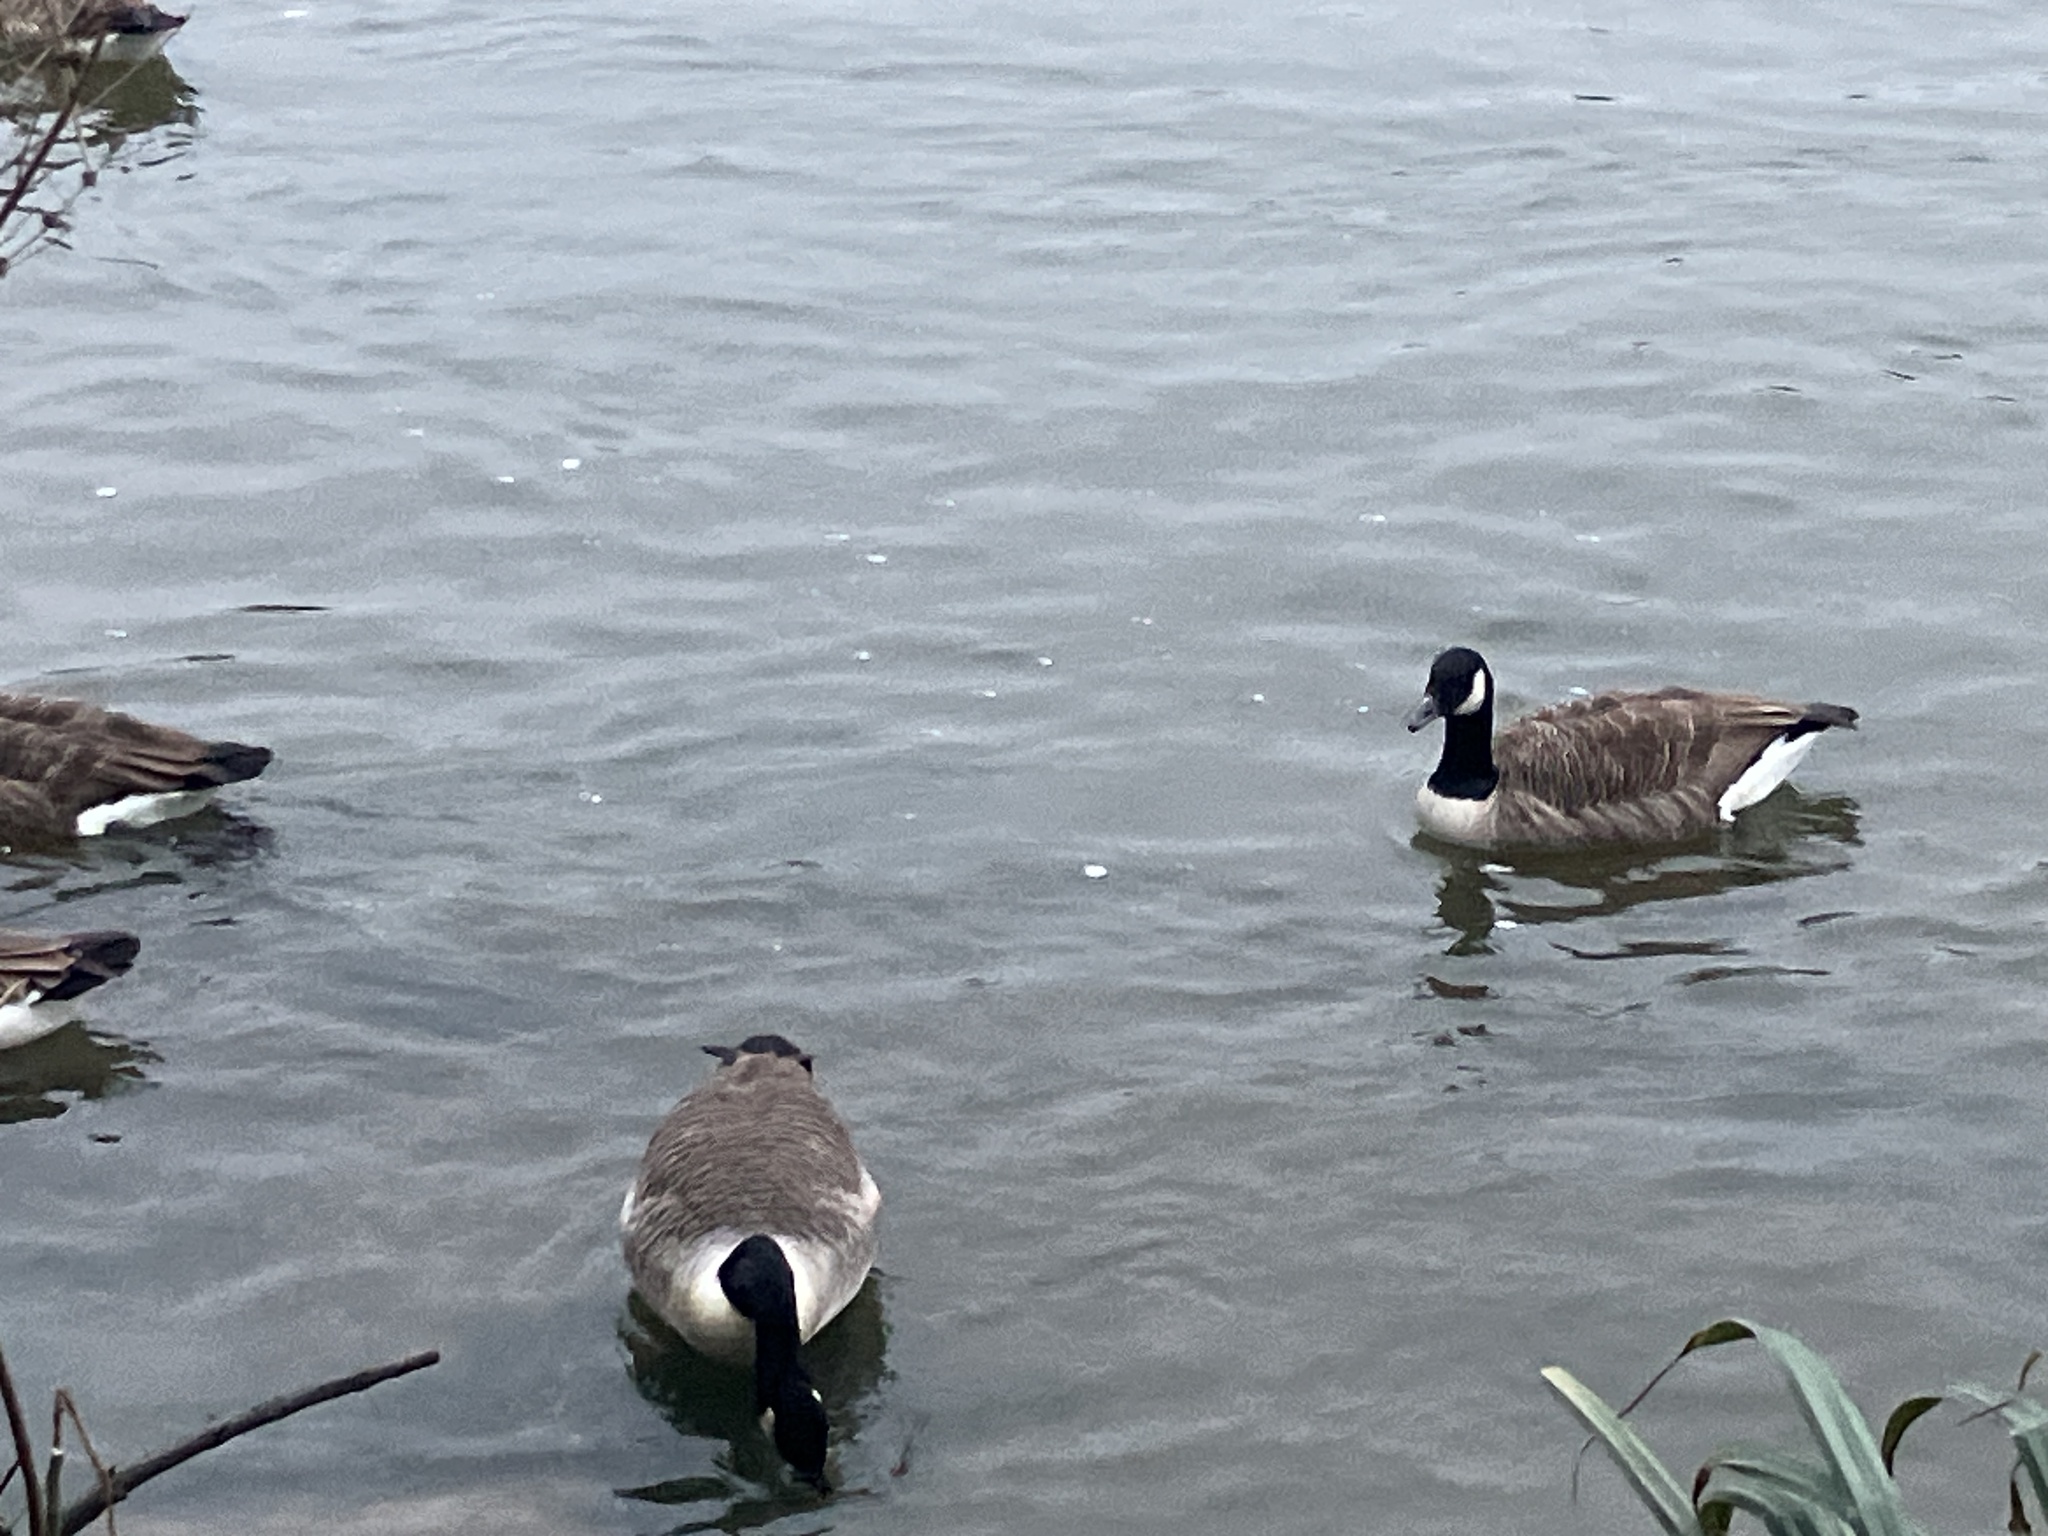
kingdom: Animalia
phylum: Chordata
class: Aves
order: Anseriformes
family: Anatidae
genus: Branta
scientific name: Branta canadensis
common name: Canada goose
